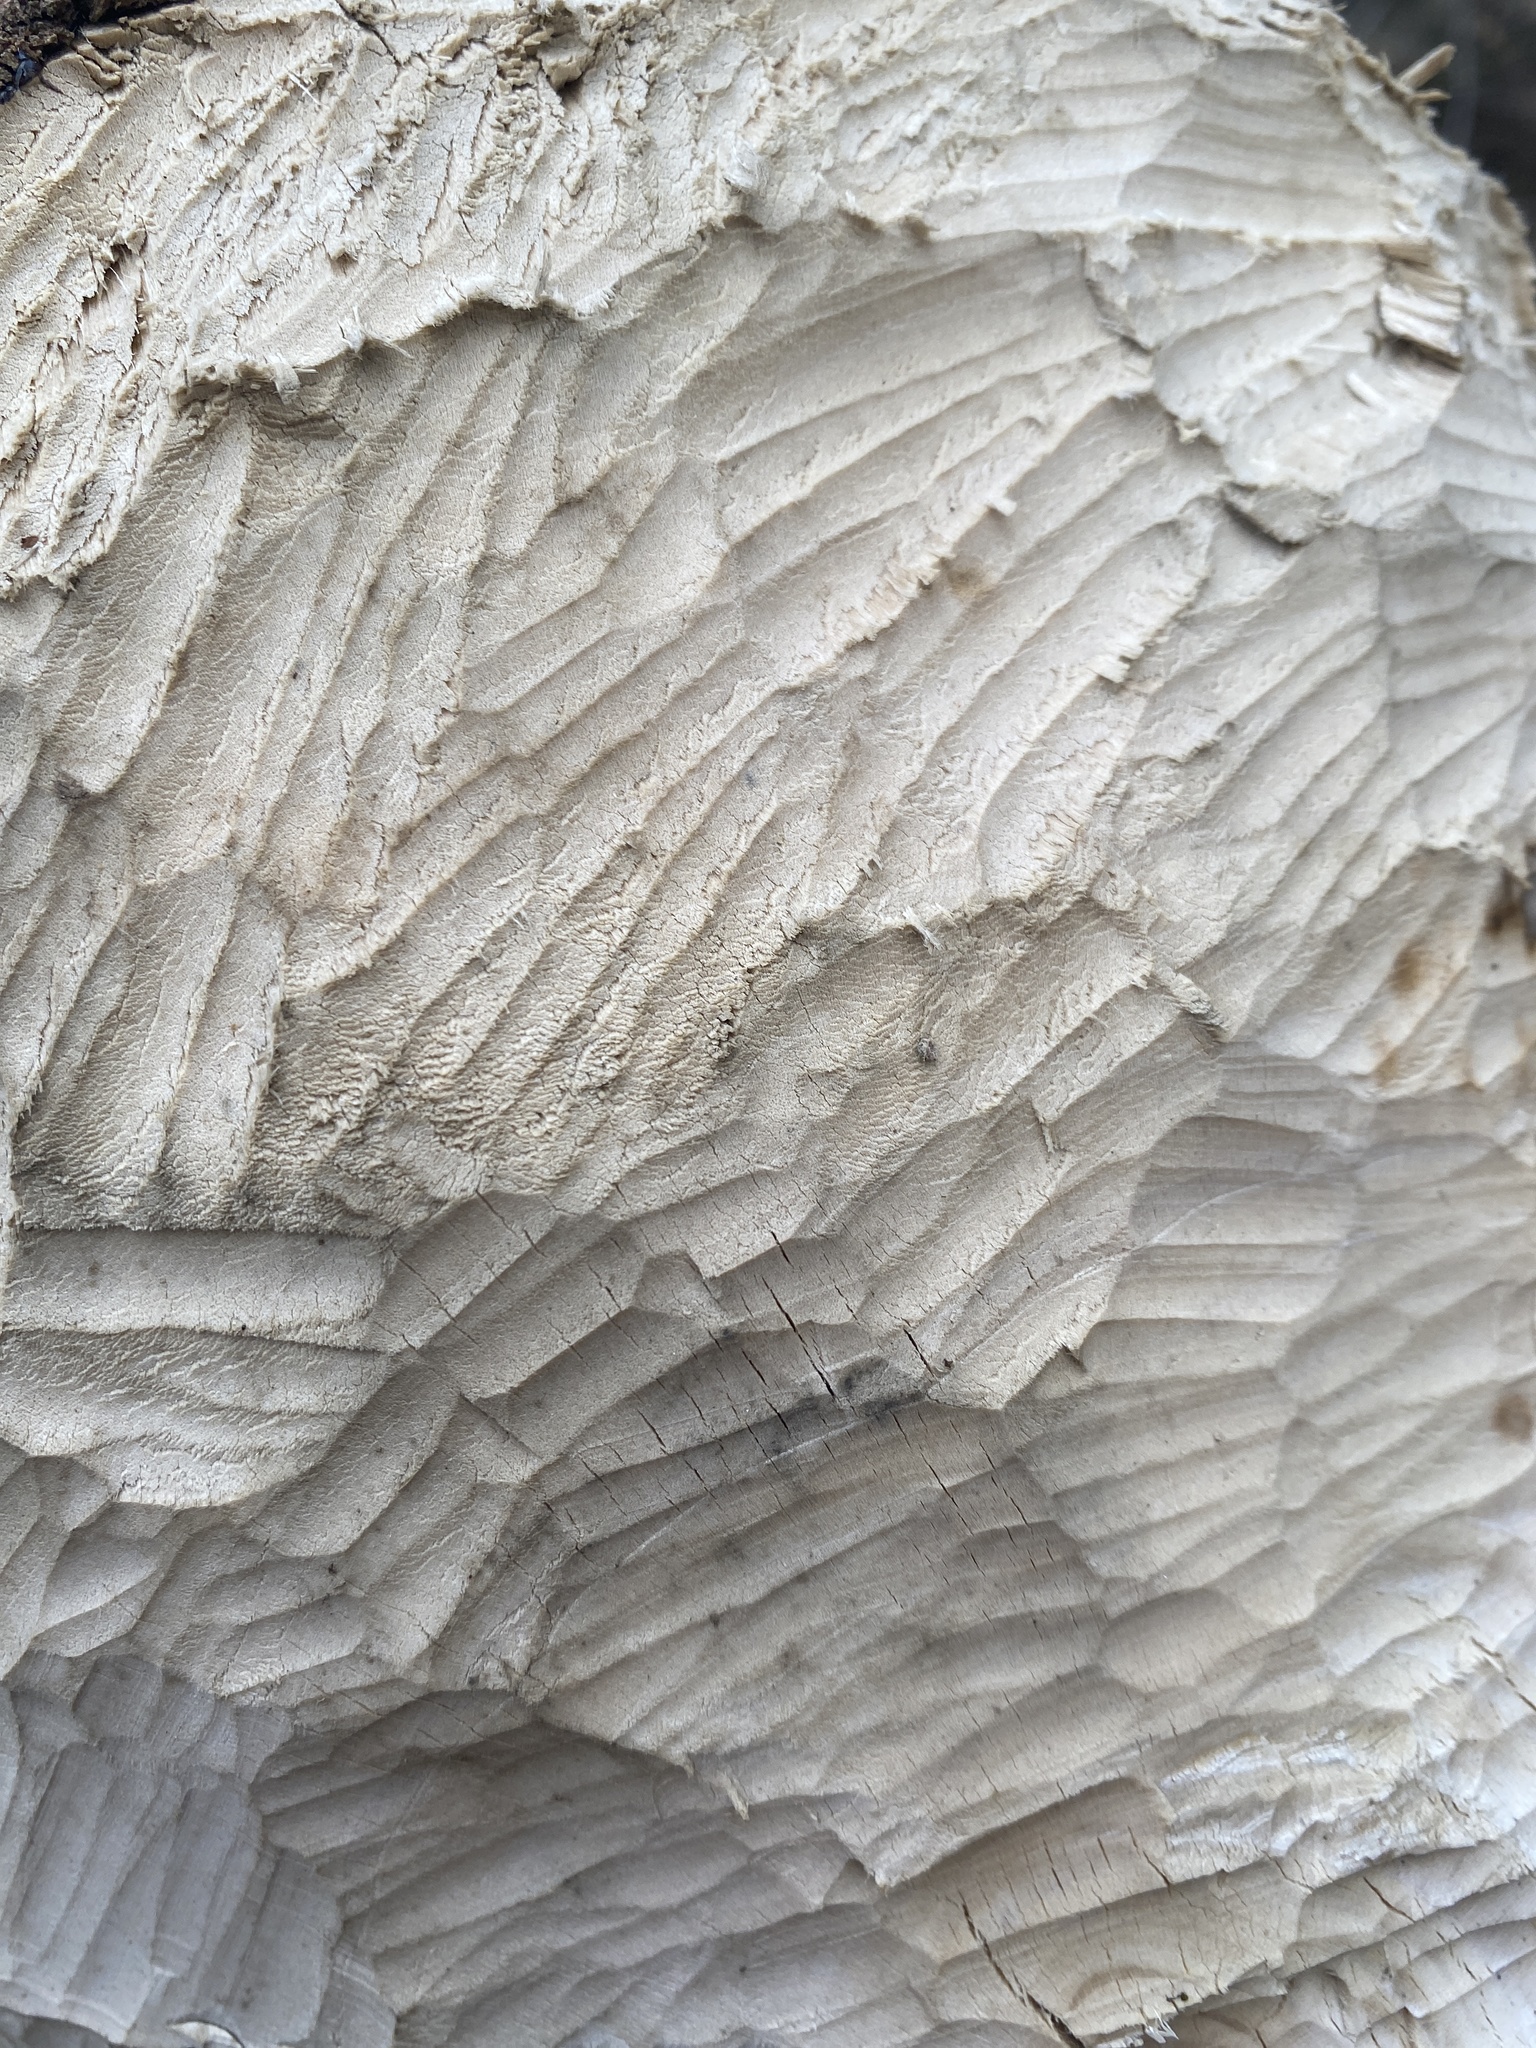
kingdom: Animalia
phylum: Chordata
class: Mammalia
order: Rodentia
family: Castoridae
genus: Castor
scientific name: Castor canadensis
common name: American beaver
